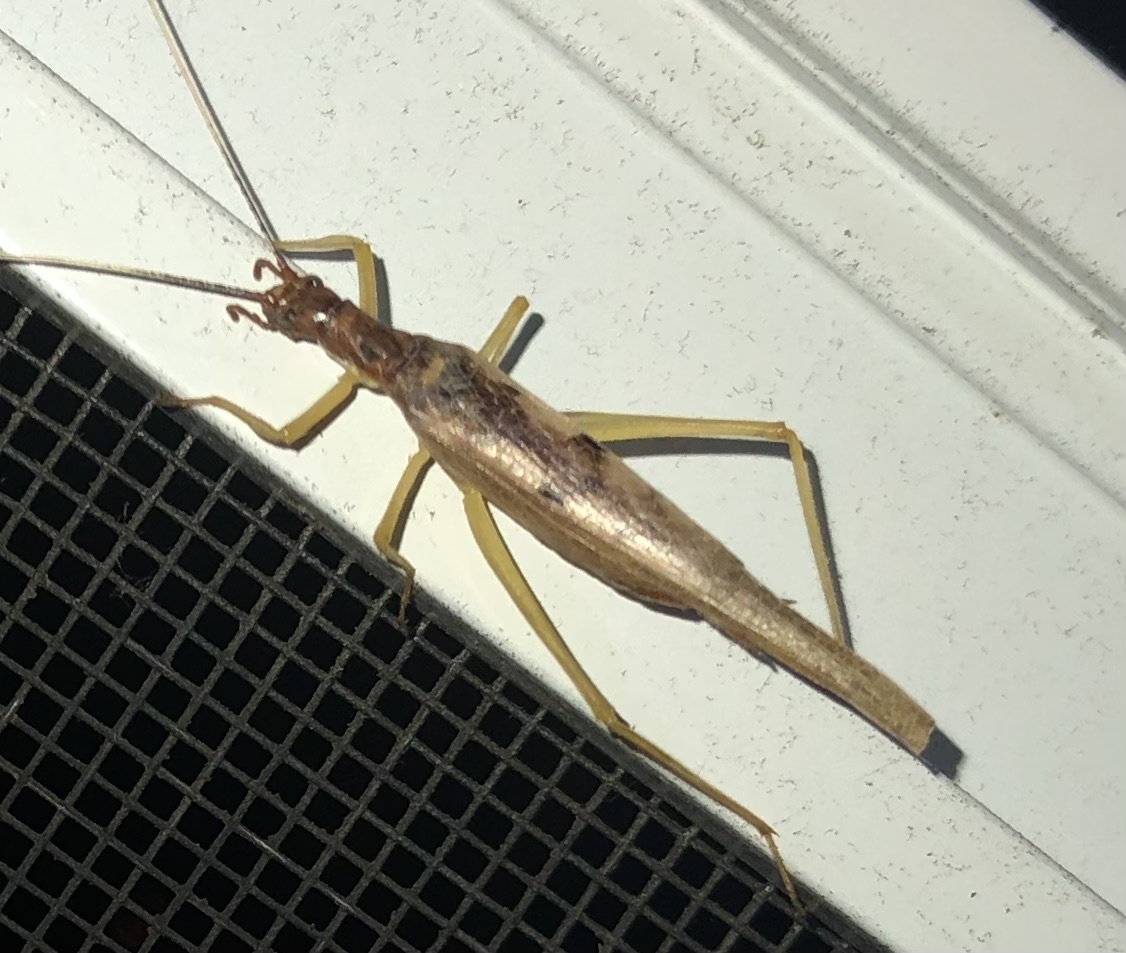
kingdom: Animalia
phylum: Arthropoda
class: Insecta
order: Orthoptera
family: Gryllidae
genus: Neoxabea
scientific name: Neoxabea bipunctata
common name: Two-spotted tree cricket
